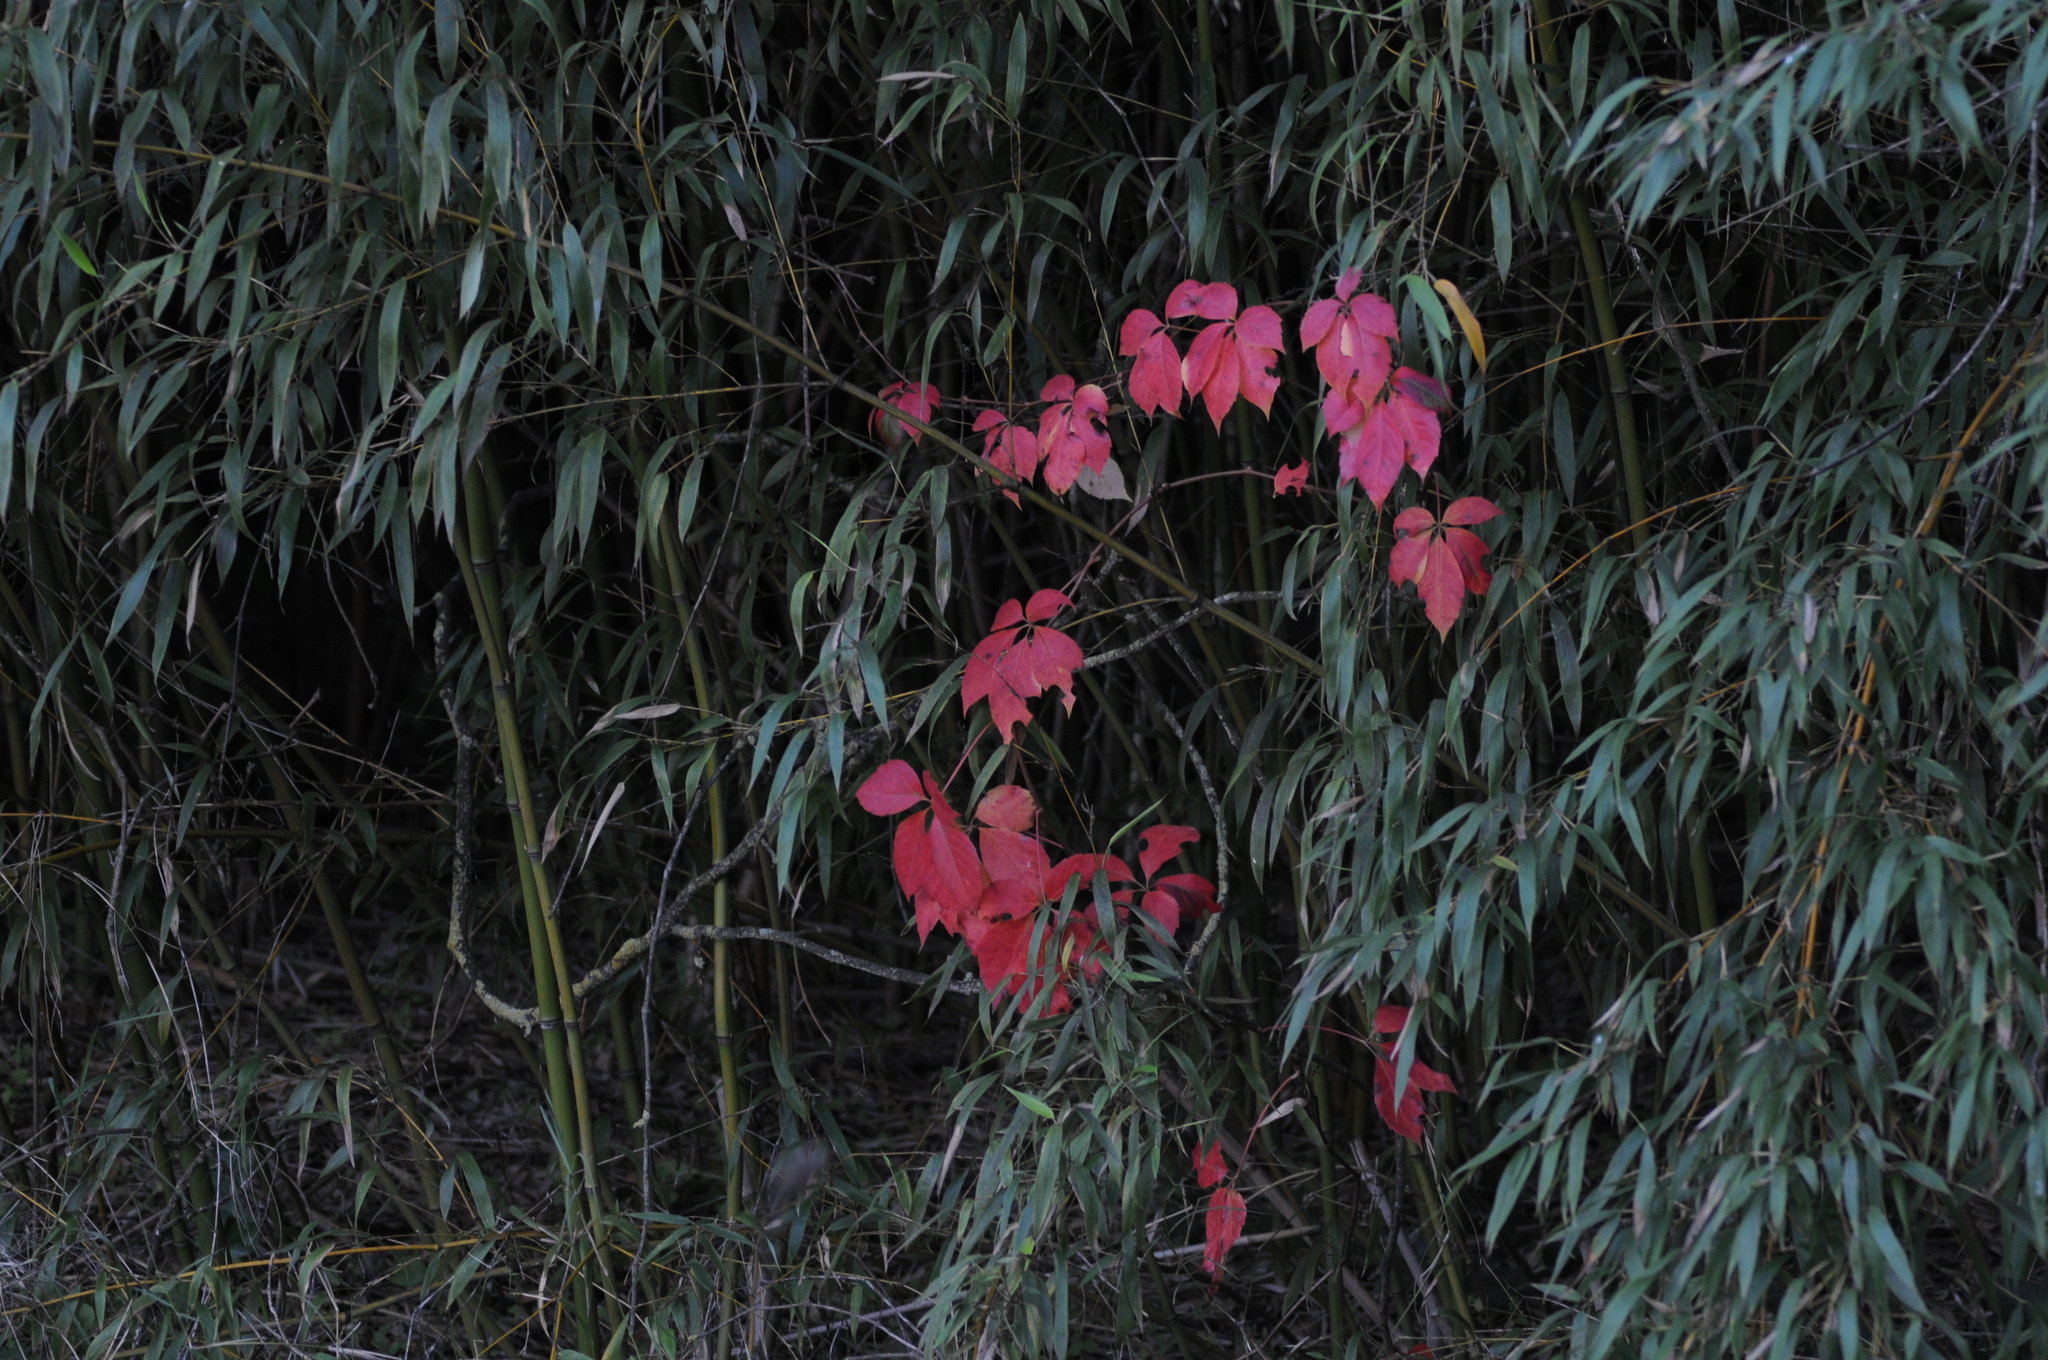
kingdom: Plantae
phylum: Tracheophyta
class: Magnoliopsida
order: Vitales
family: Vitaceae
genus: Parthenocissus
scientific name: Parthenocissus quinquefolia
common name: Virginia-creeper
